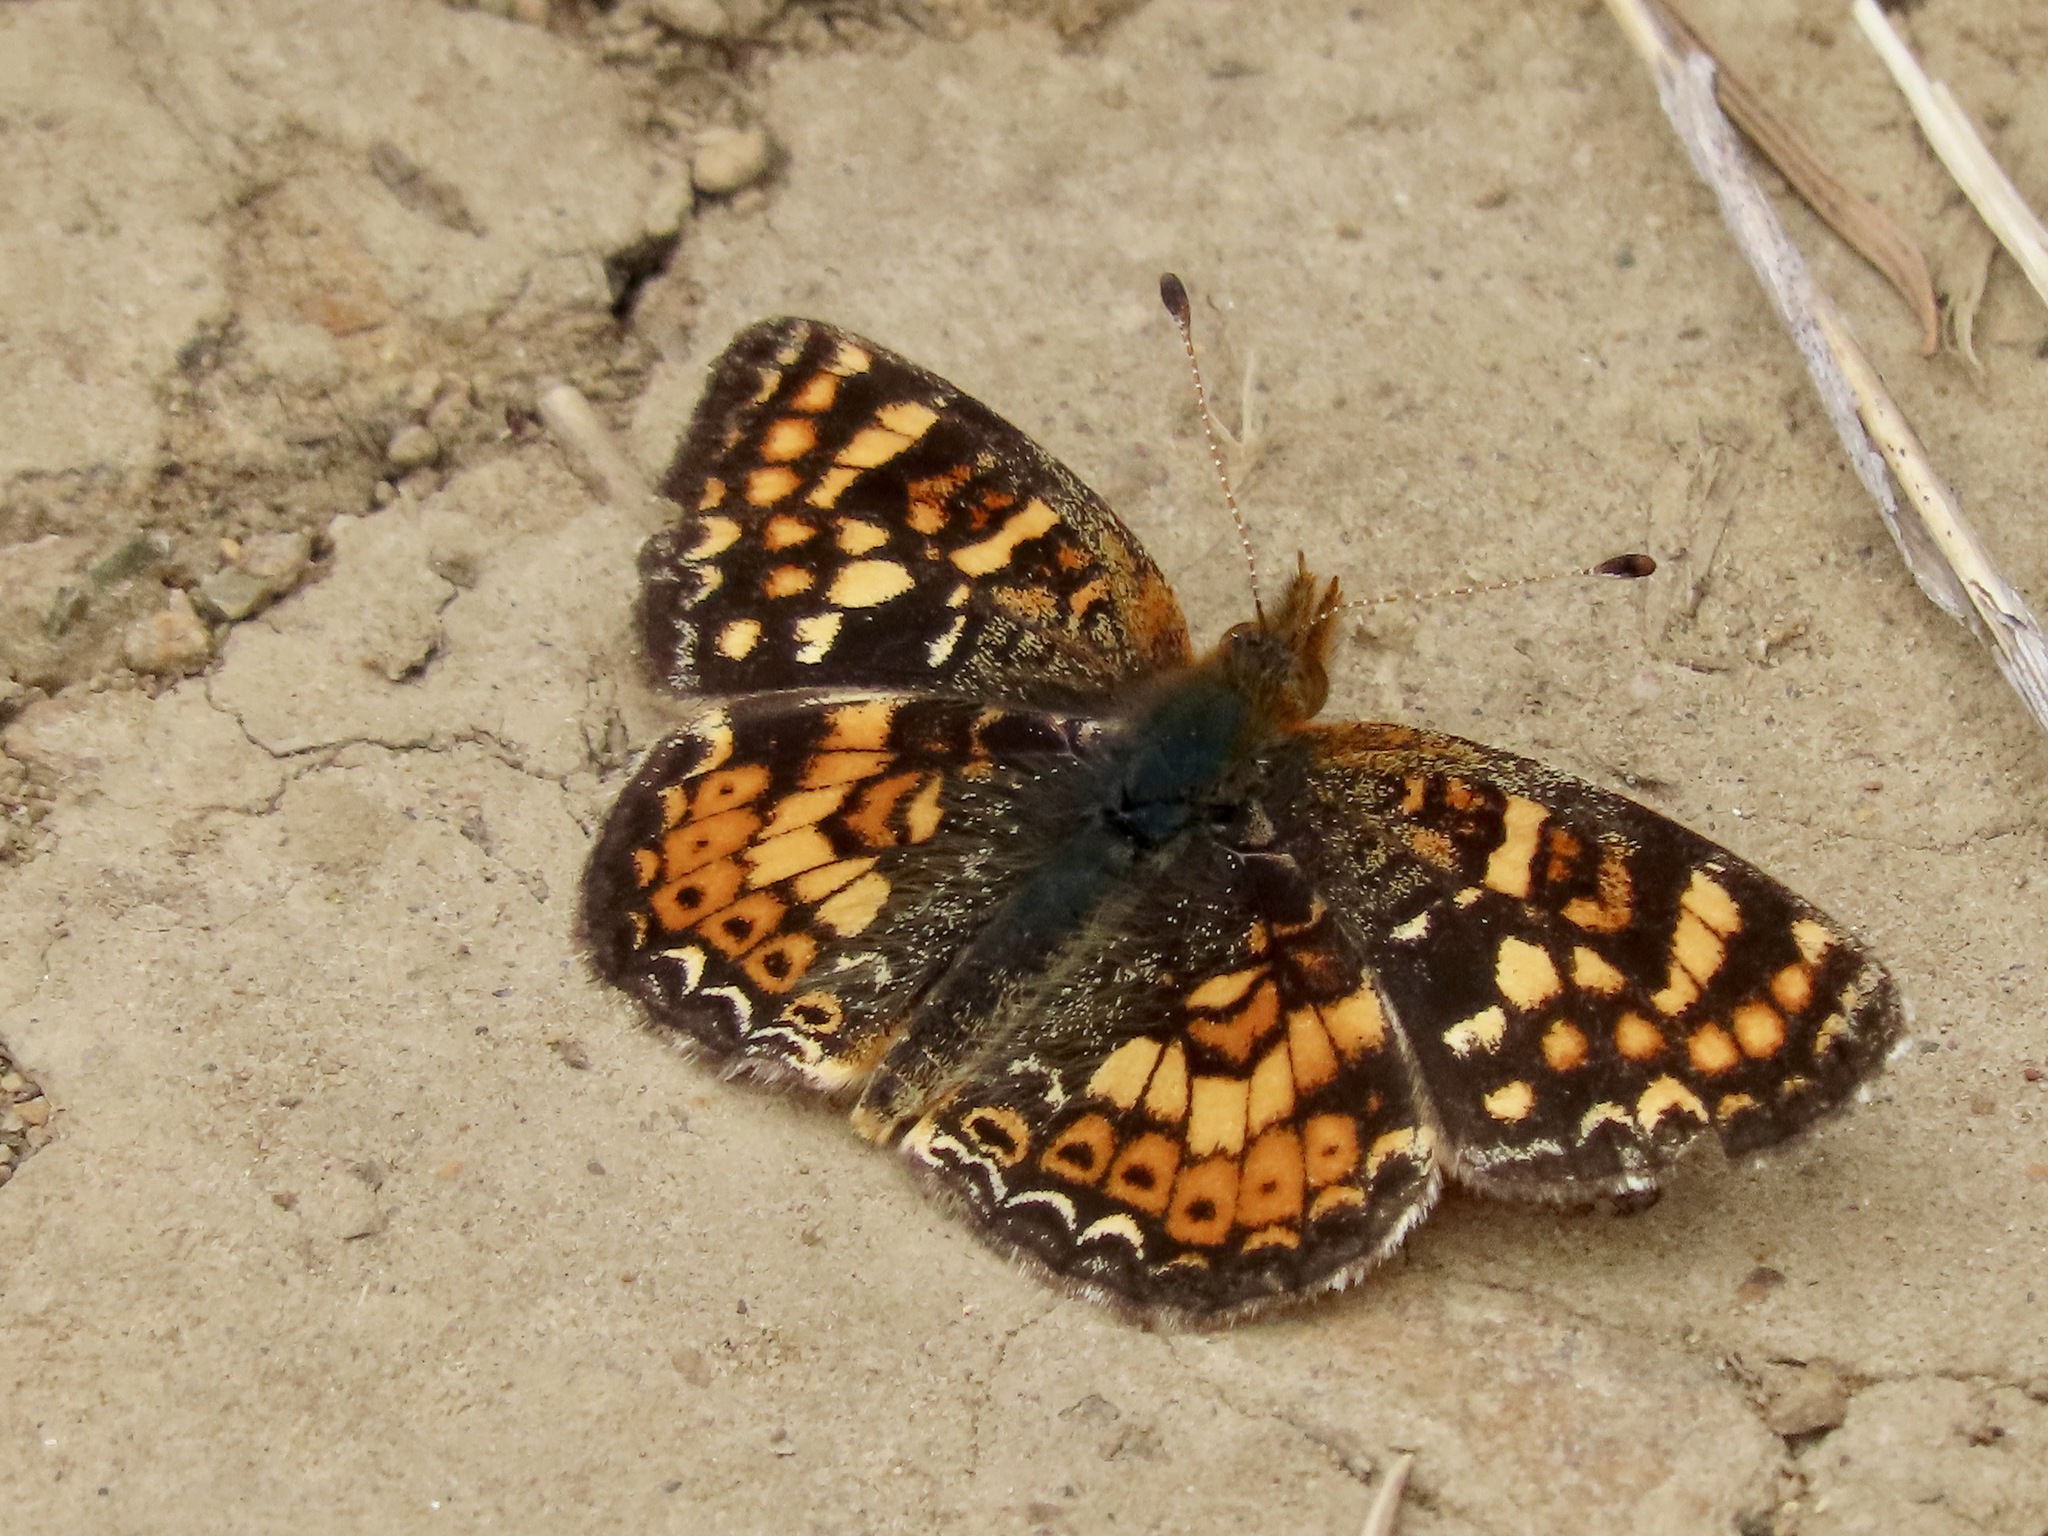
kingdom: Animalia
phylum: Arthropoda
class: Insecta
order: Lepidoptera
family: Nymphalidae
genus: Phyciodes
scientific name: Phyciodes tharos
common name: Pearl crescent
